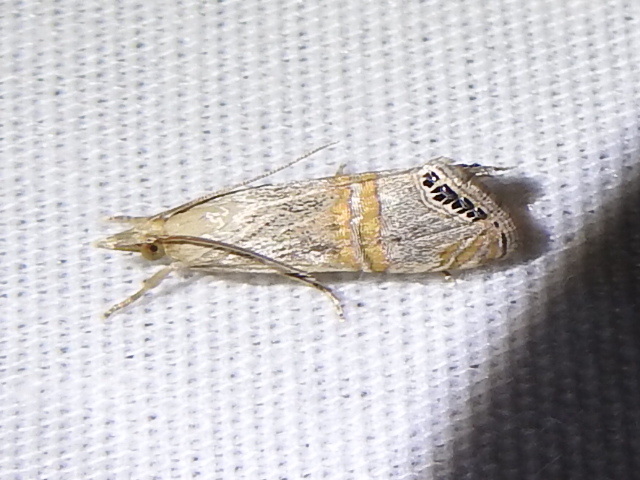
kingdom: Animalia
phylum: Arthropoda
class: Insecta
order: Lepidoptera
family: Crambidae
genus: Euchromius
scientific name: Euchromius ocellea
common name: Necklace veneer moth
